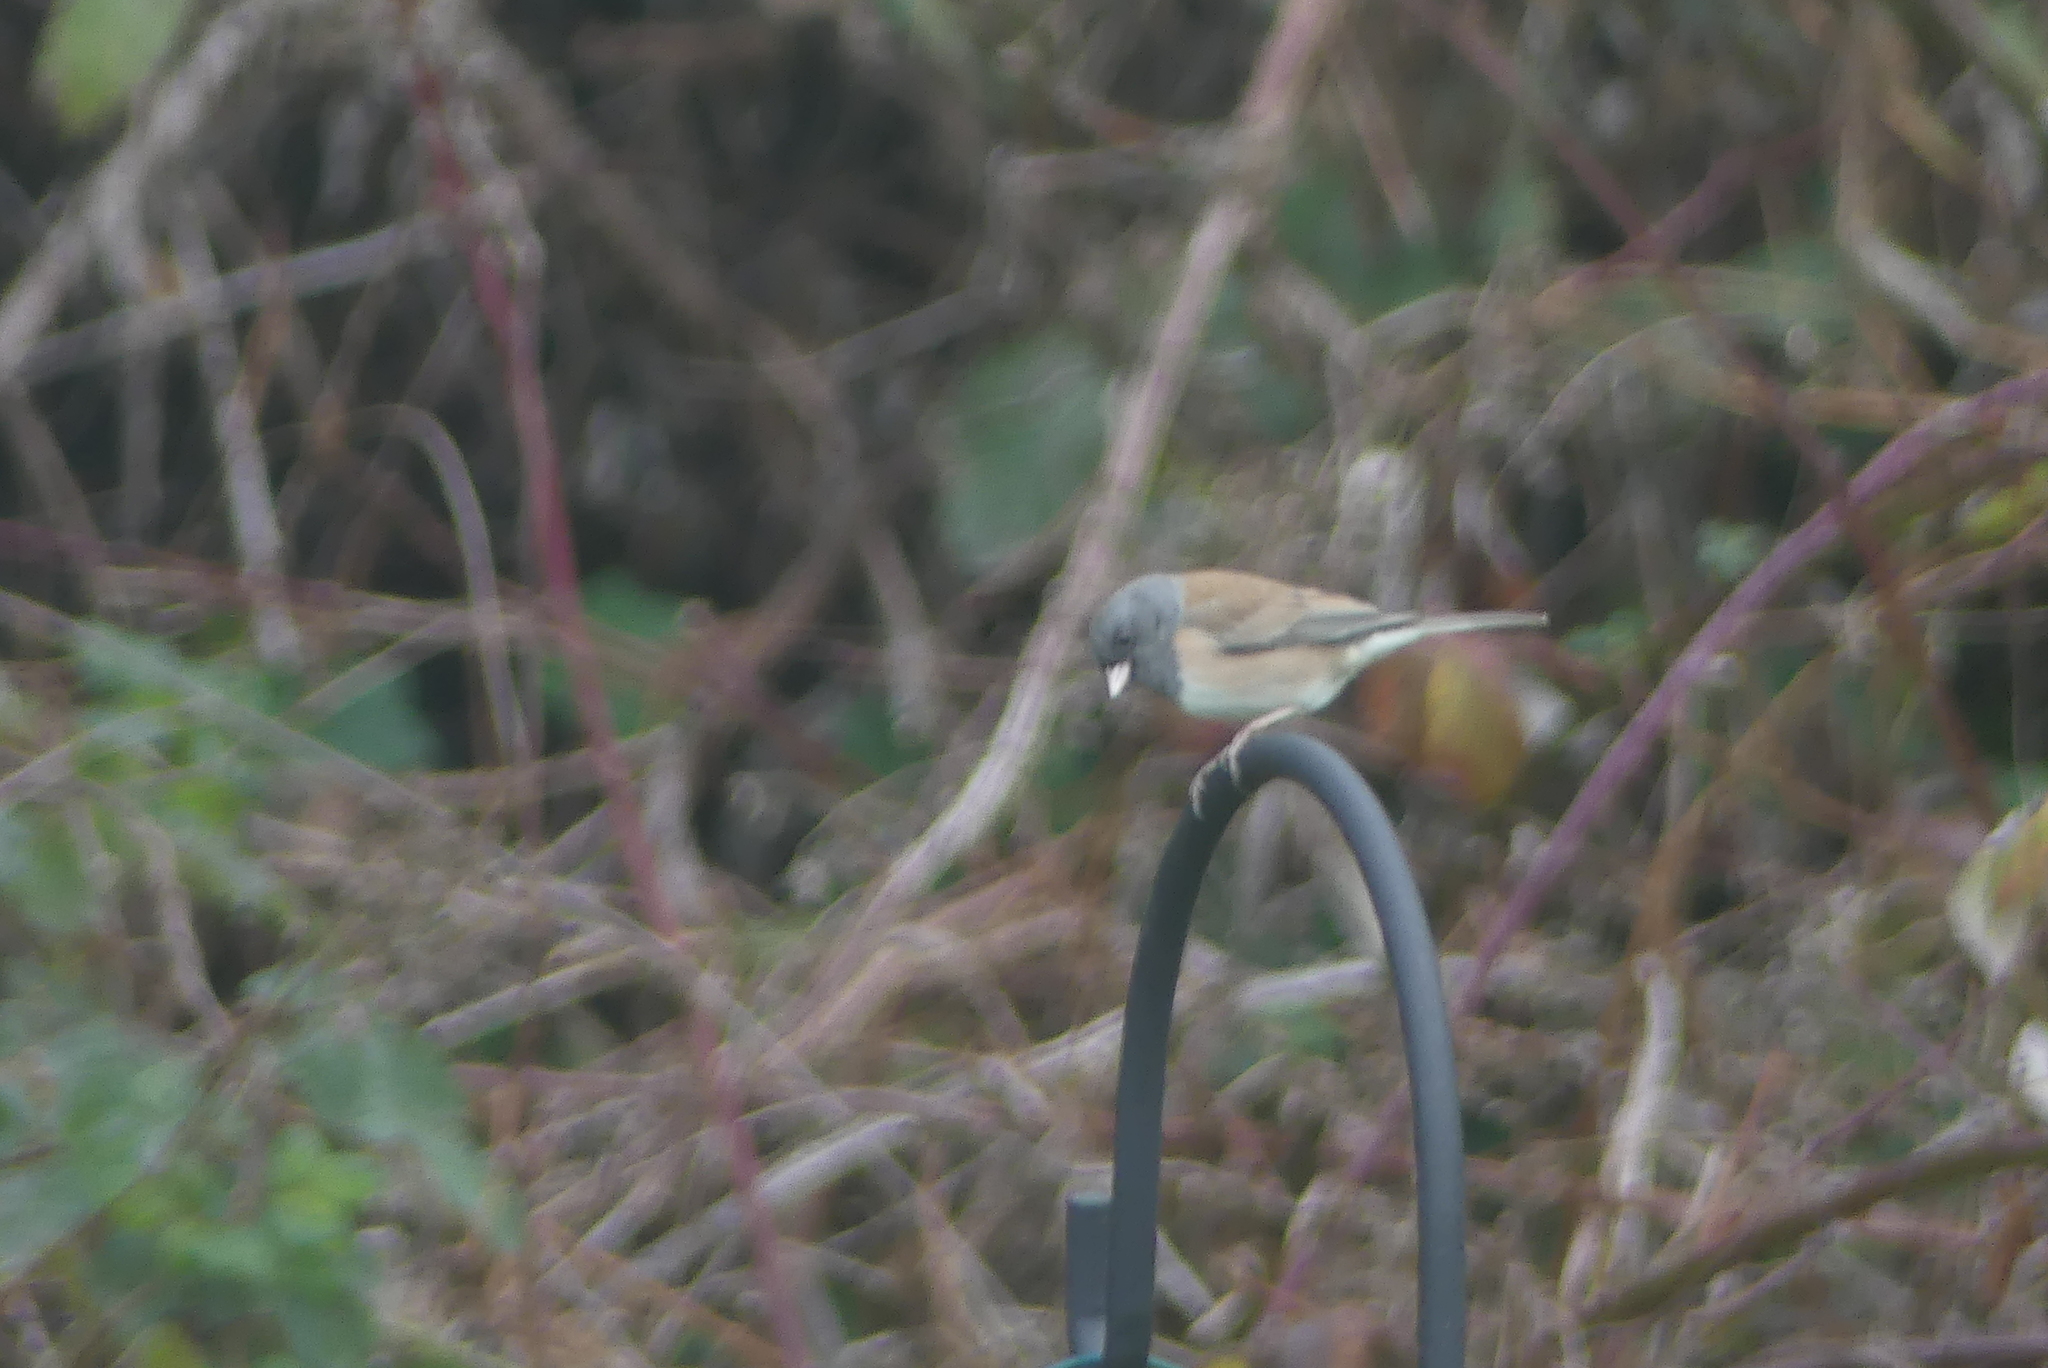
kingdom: Animalia
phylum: Chordata
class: Aves
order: Passeriformes
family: Passerellidae
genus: Junco
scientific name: Junco hyemalis
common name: Dark-eyed junco
